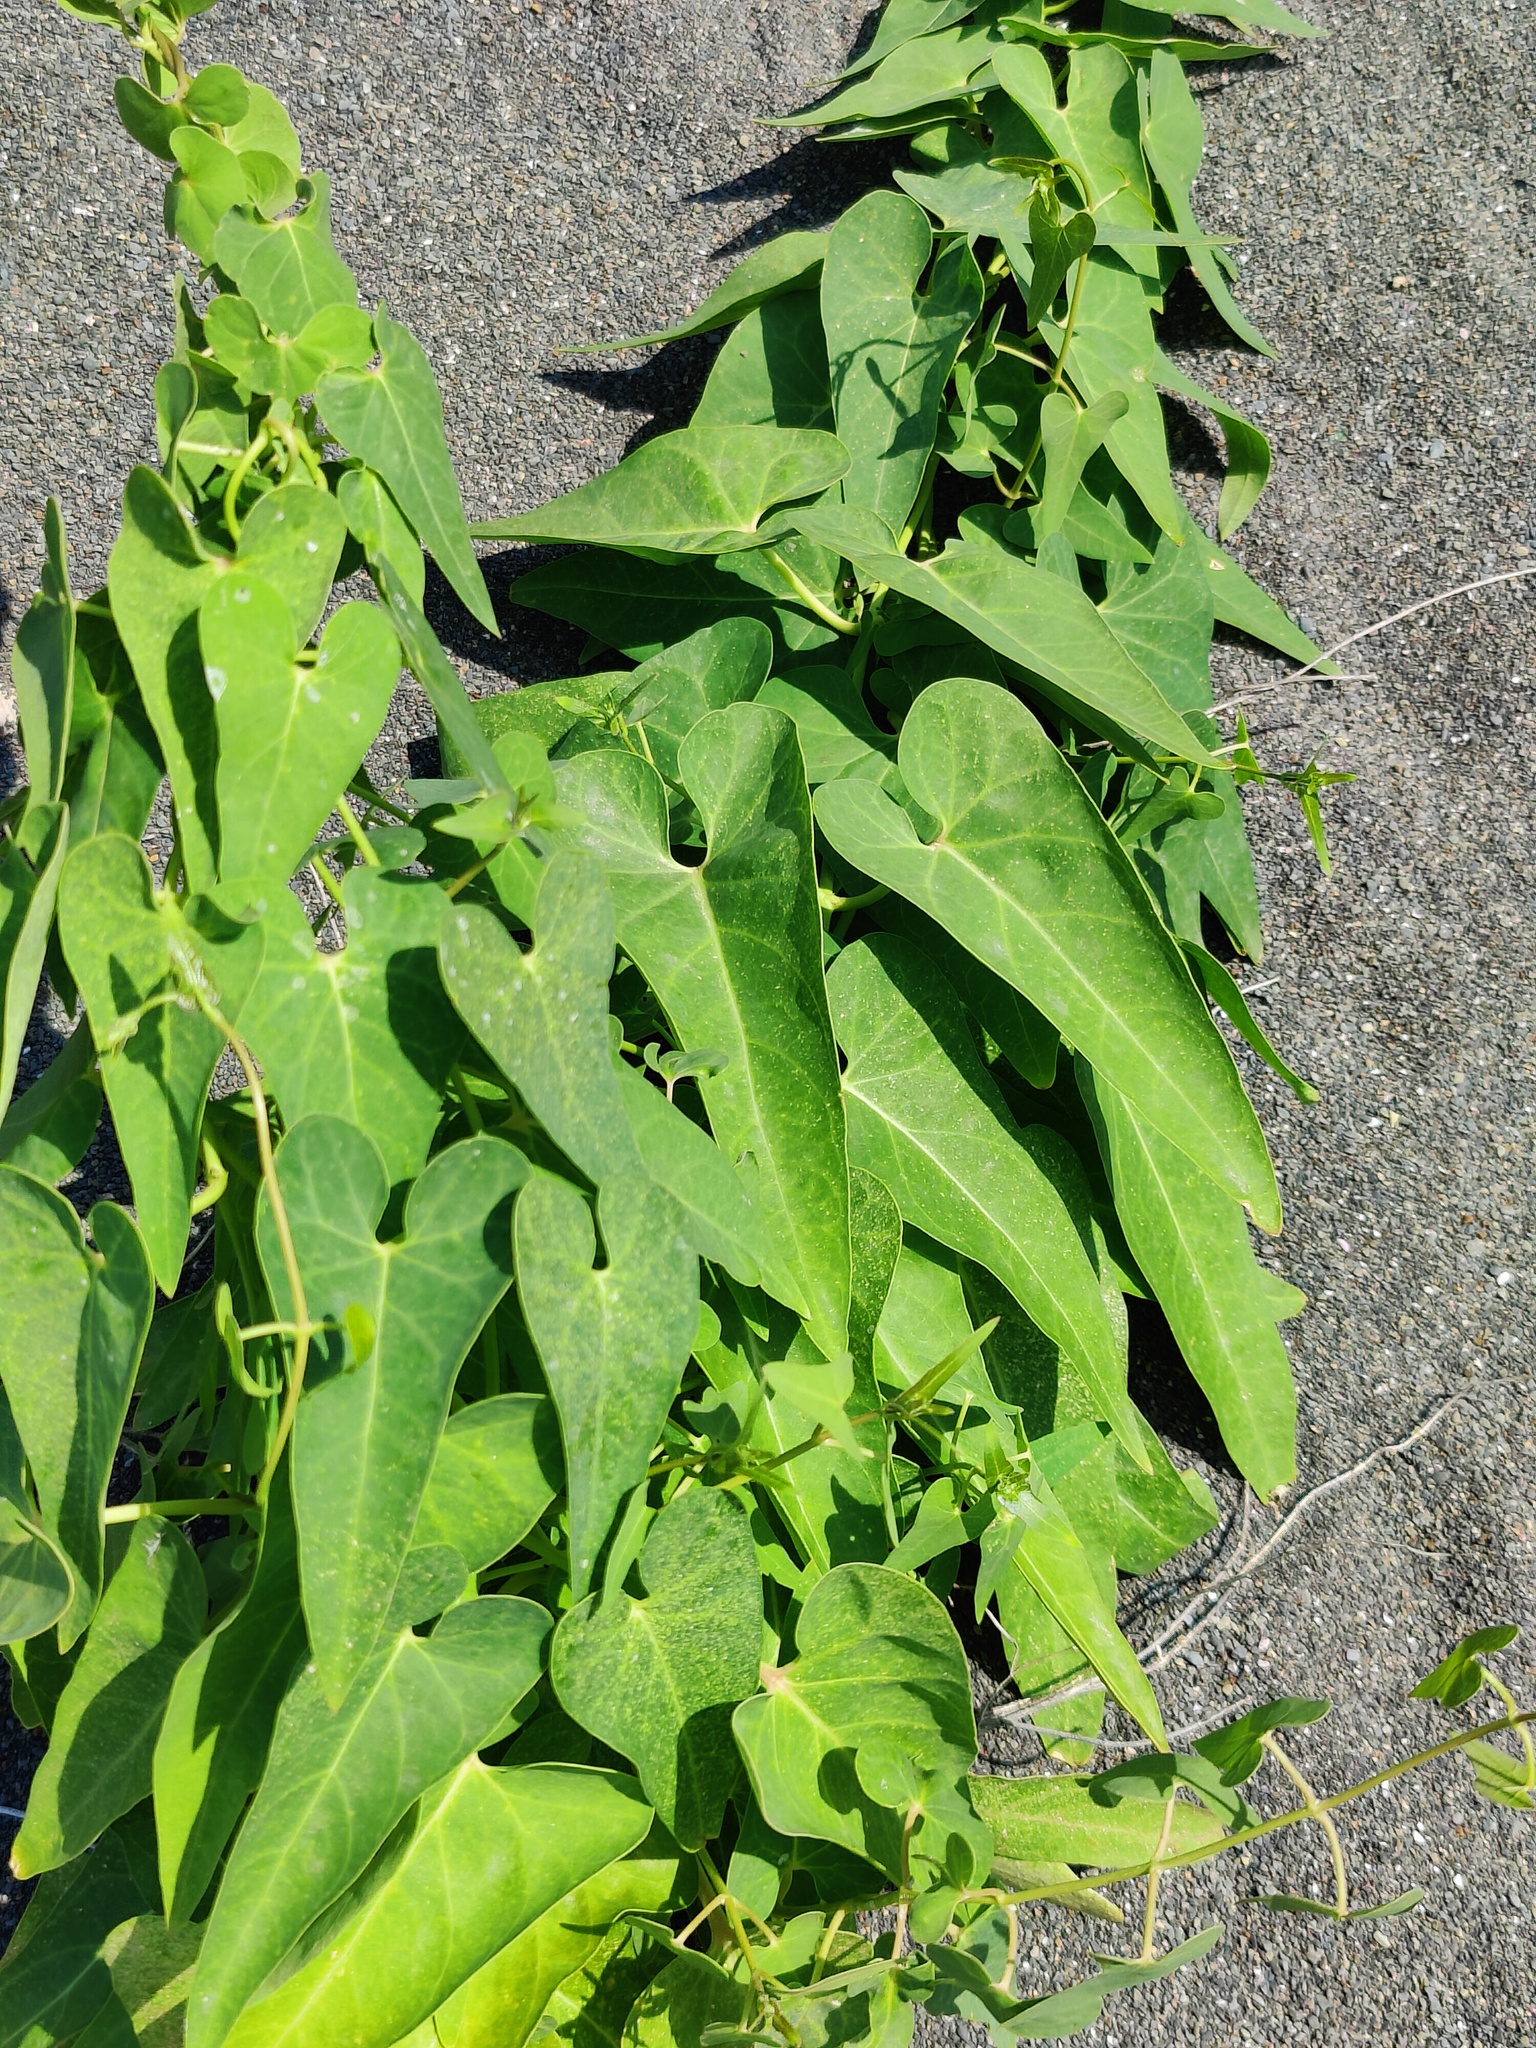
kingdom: Plantae
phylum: Tracheophyta
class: Magnoliopsida
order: Gentianales
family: Apocynaceae
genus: Cynanchum
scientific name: Cynanchum acutum
